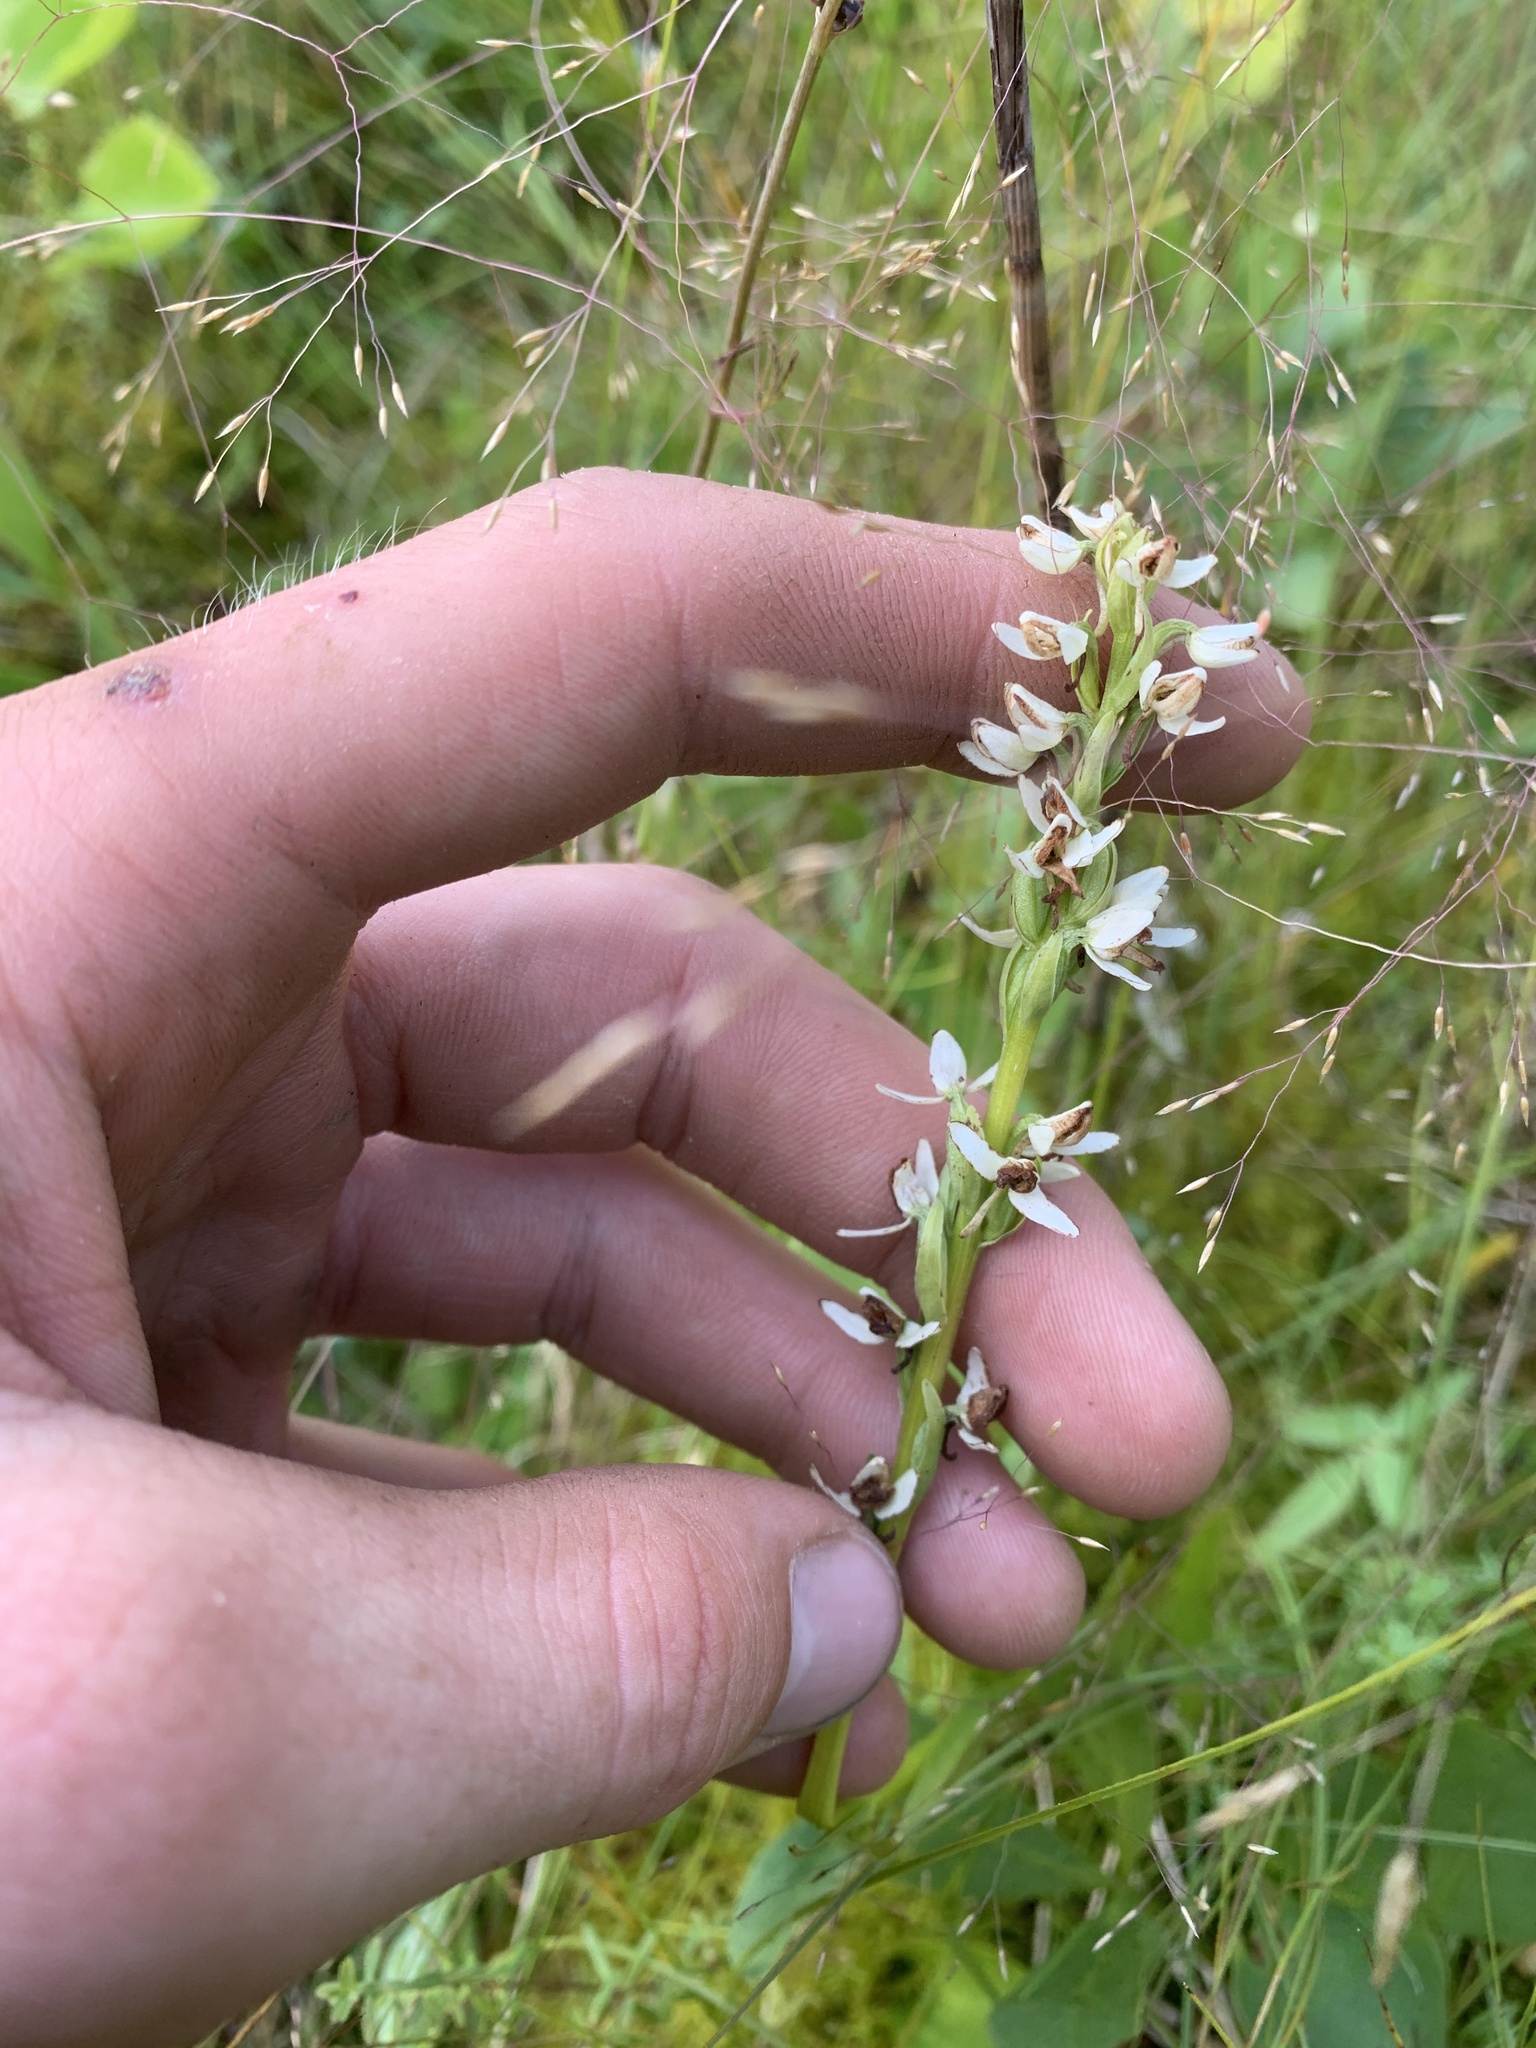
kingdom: Plantae
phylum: Tracheophyta
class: Liliopsida
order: Asparagales
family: Orchidaceae
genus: Platanthera
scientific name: Platanthera dilatata
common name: Bog candles
